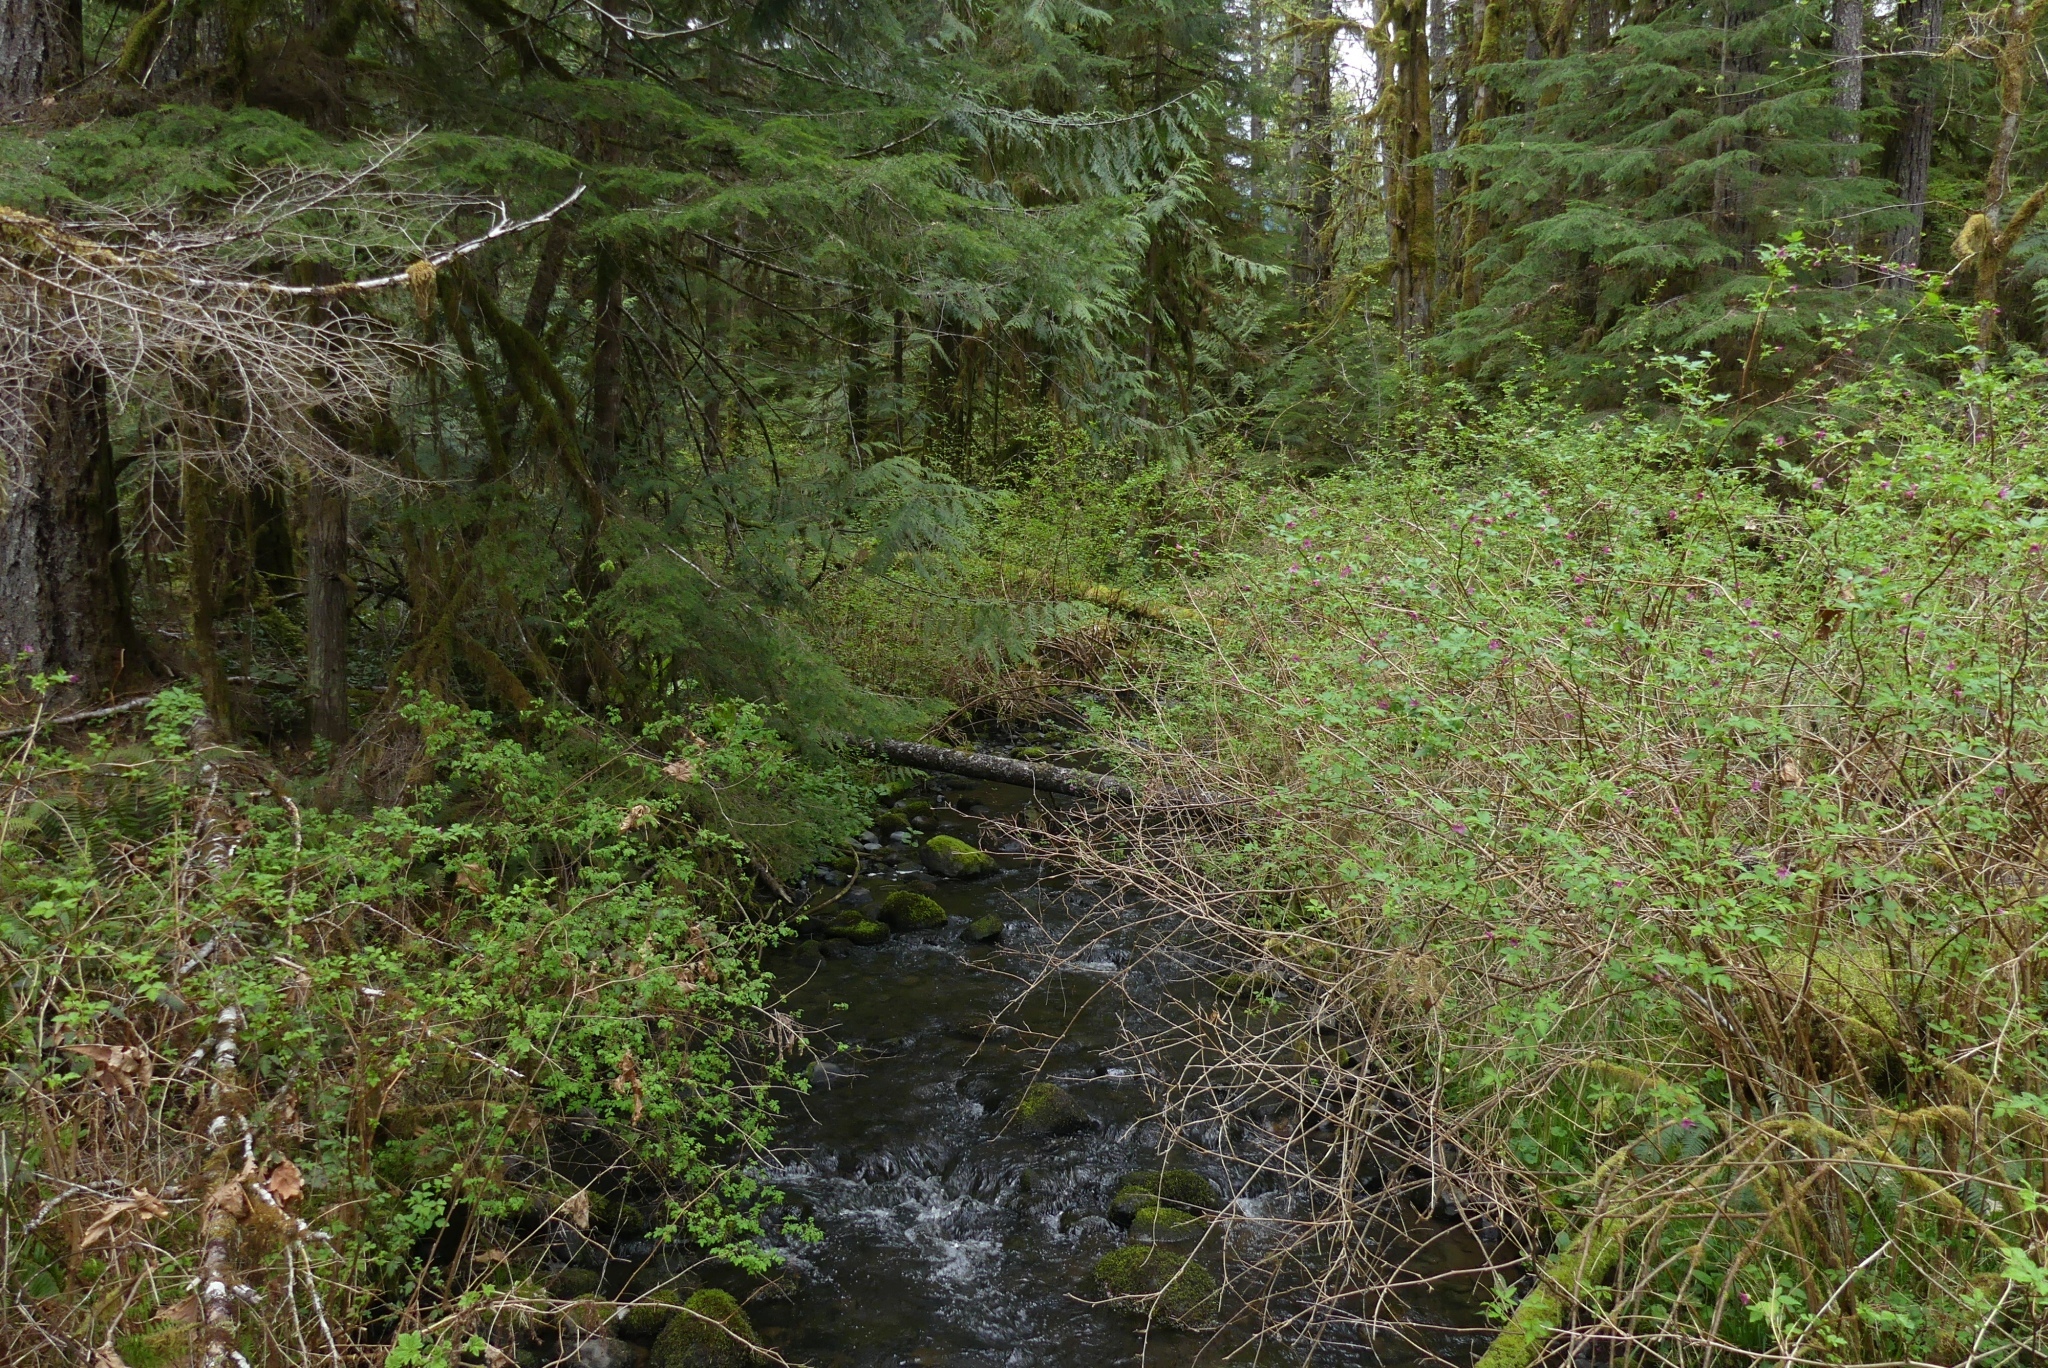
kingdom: Plantae
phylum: Tracheophyta
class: Magnoliopsida
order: Rosales
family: Rosaceae
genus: Rubus
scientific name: Rubus spectabilis
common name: Salmonberry
